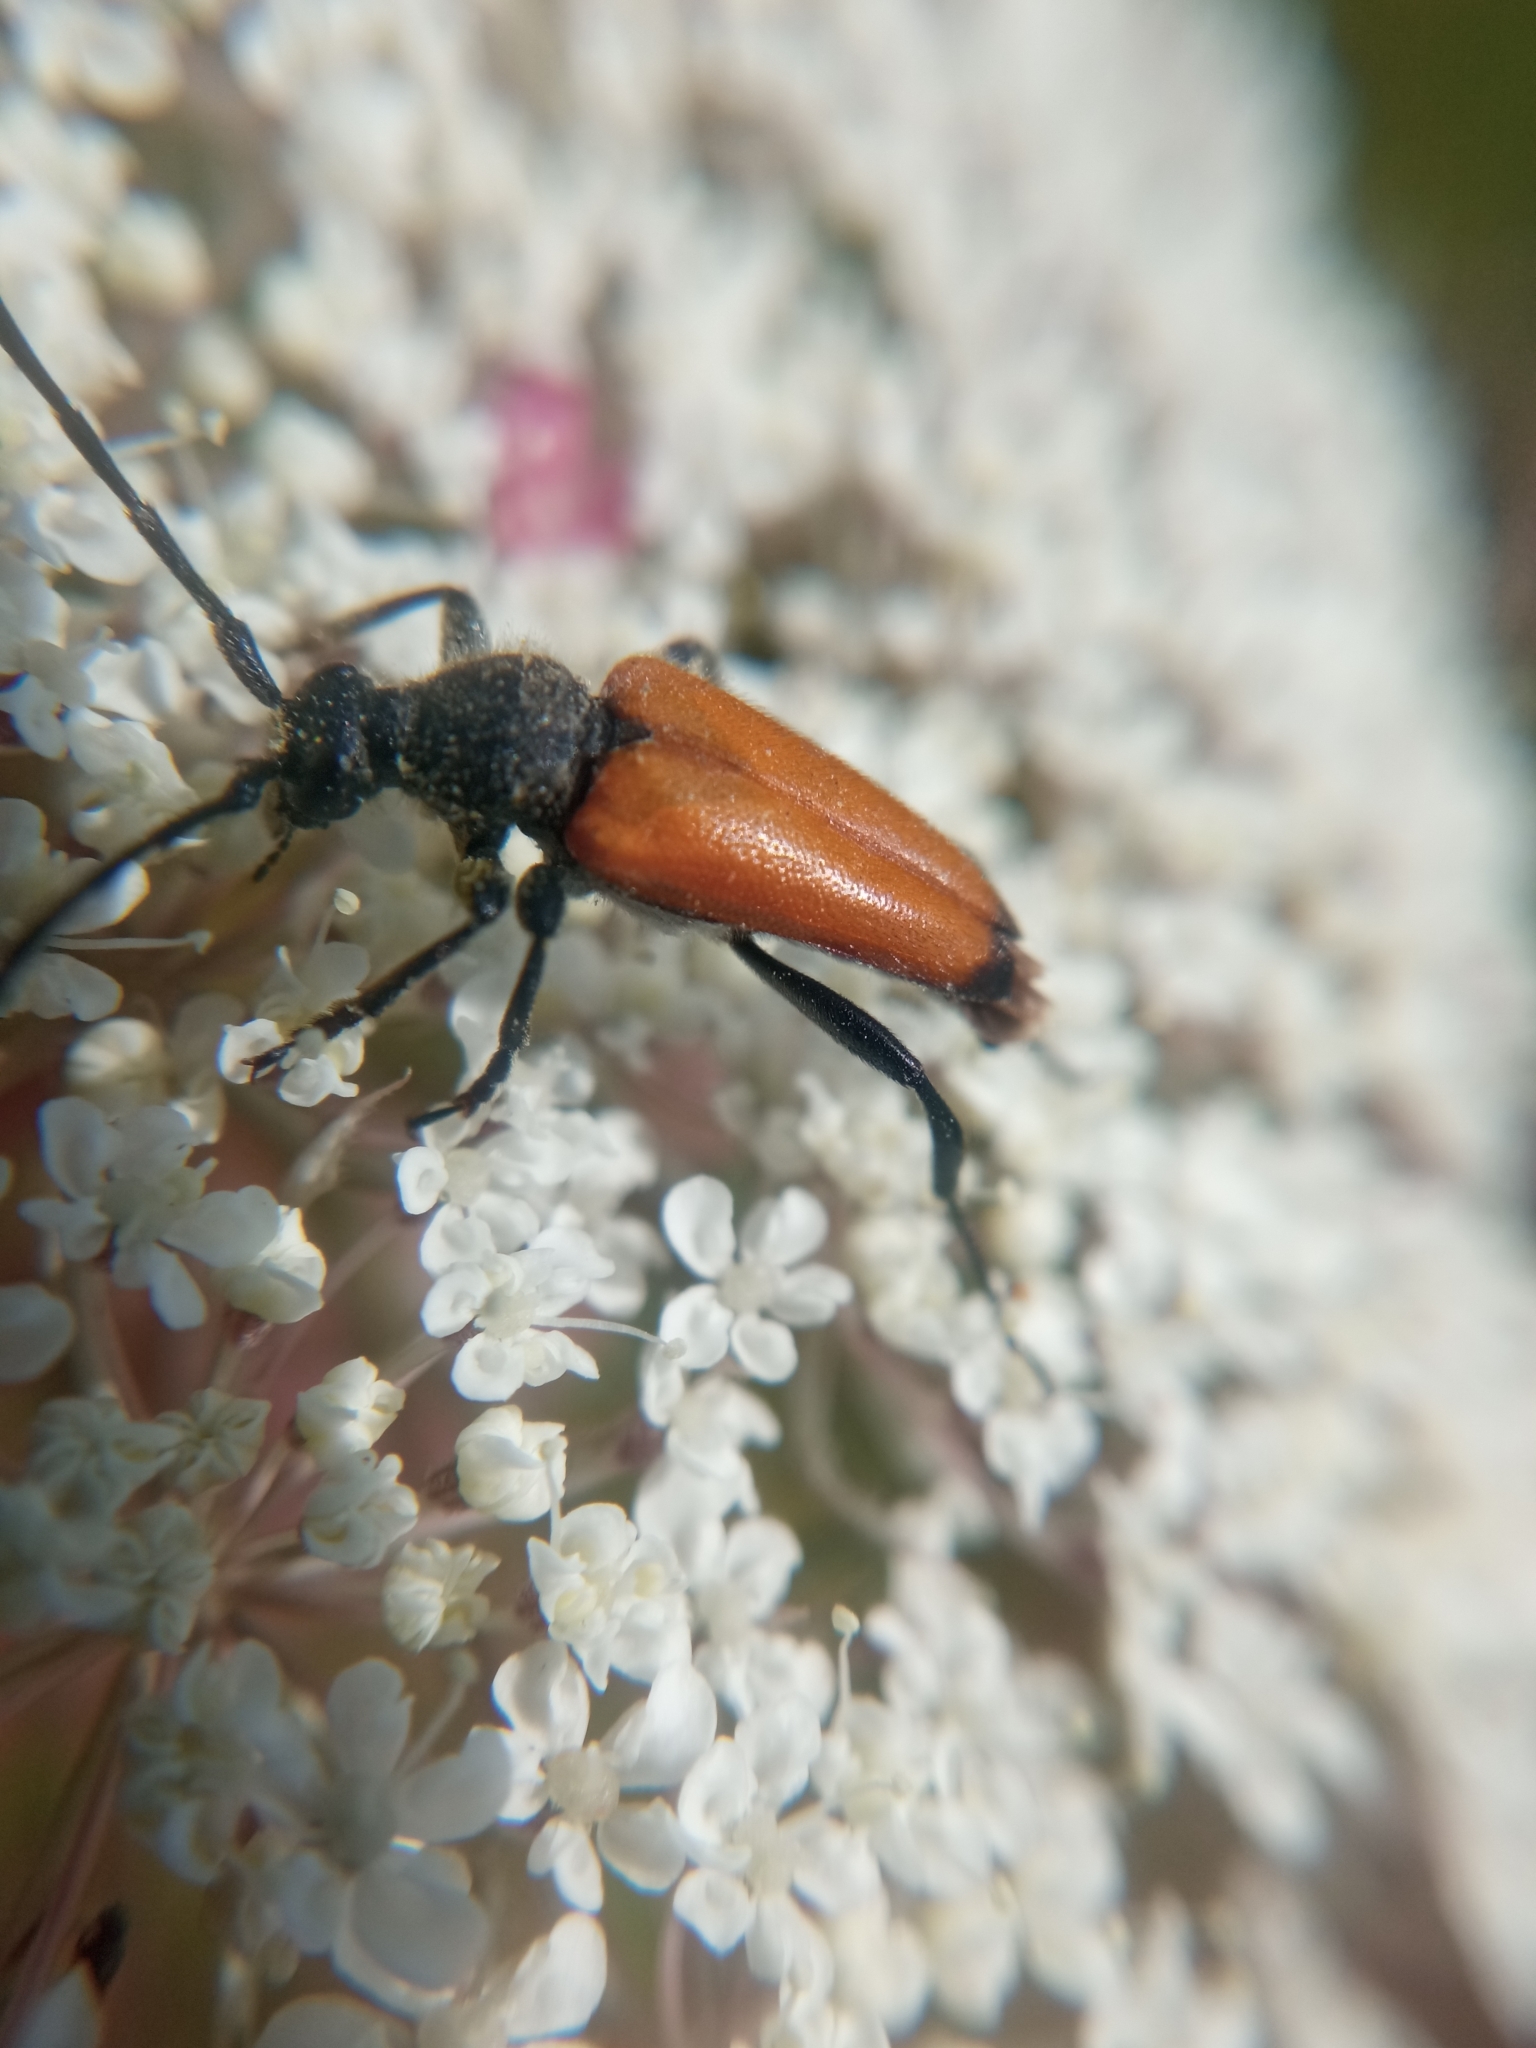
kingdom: Animalia
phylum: Arthropoda
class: Insecta
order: Coleoptera
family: Cerambycidae
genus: Paracorymbia
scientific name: Paracorymbia fulva
